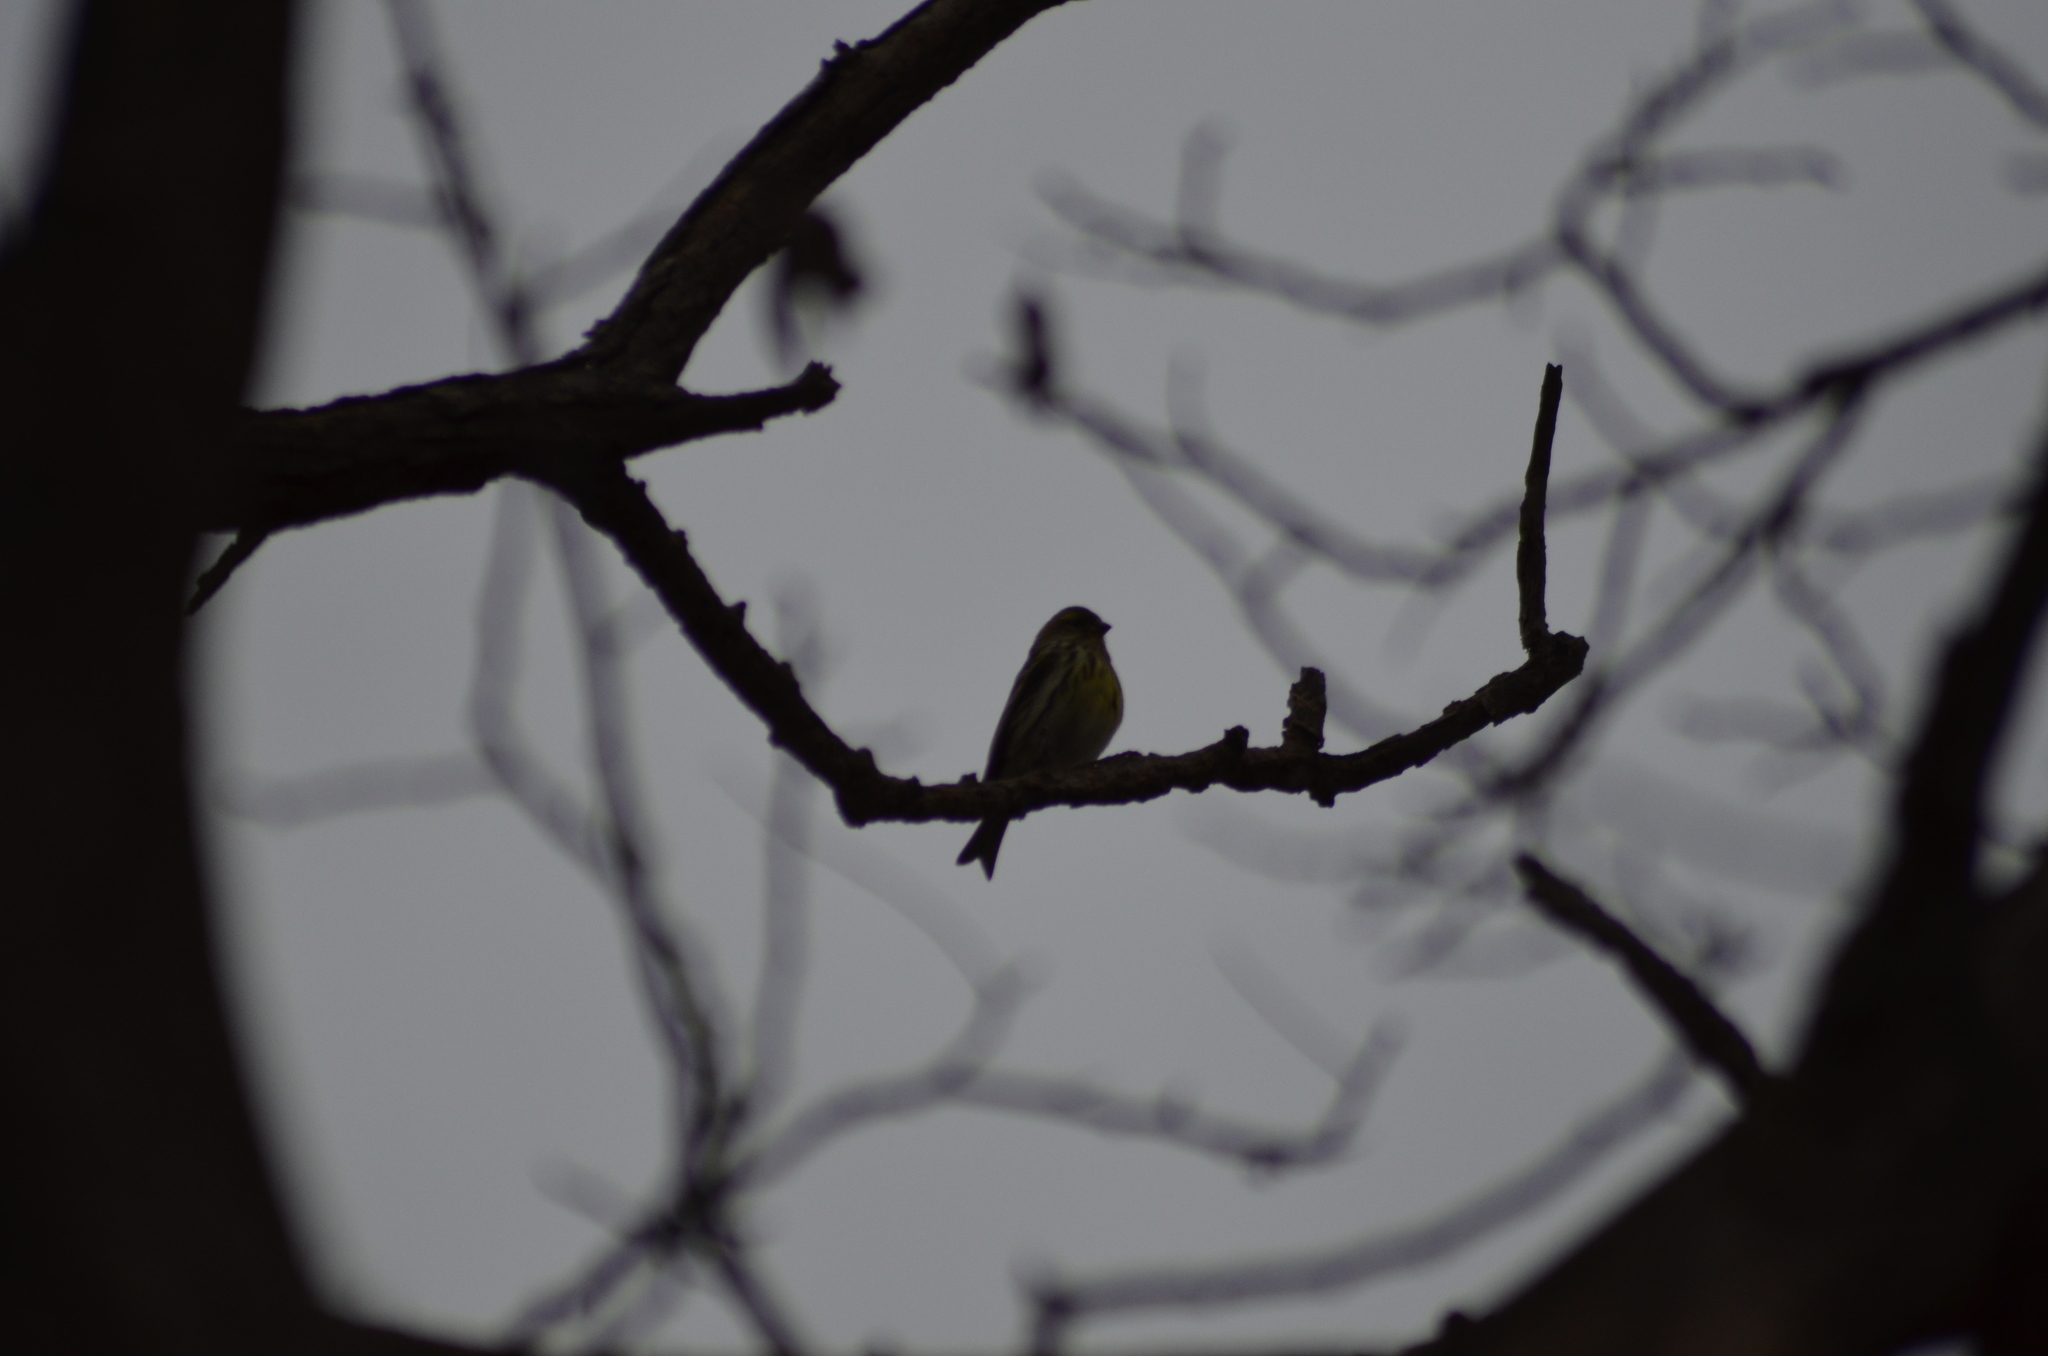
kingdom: Animalia
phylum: Chordata
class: Aves
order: Passeriformes
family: Fringillidae
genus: Serinus
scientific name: Serinus serinus
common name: European serin
